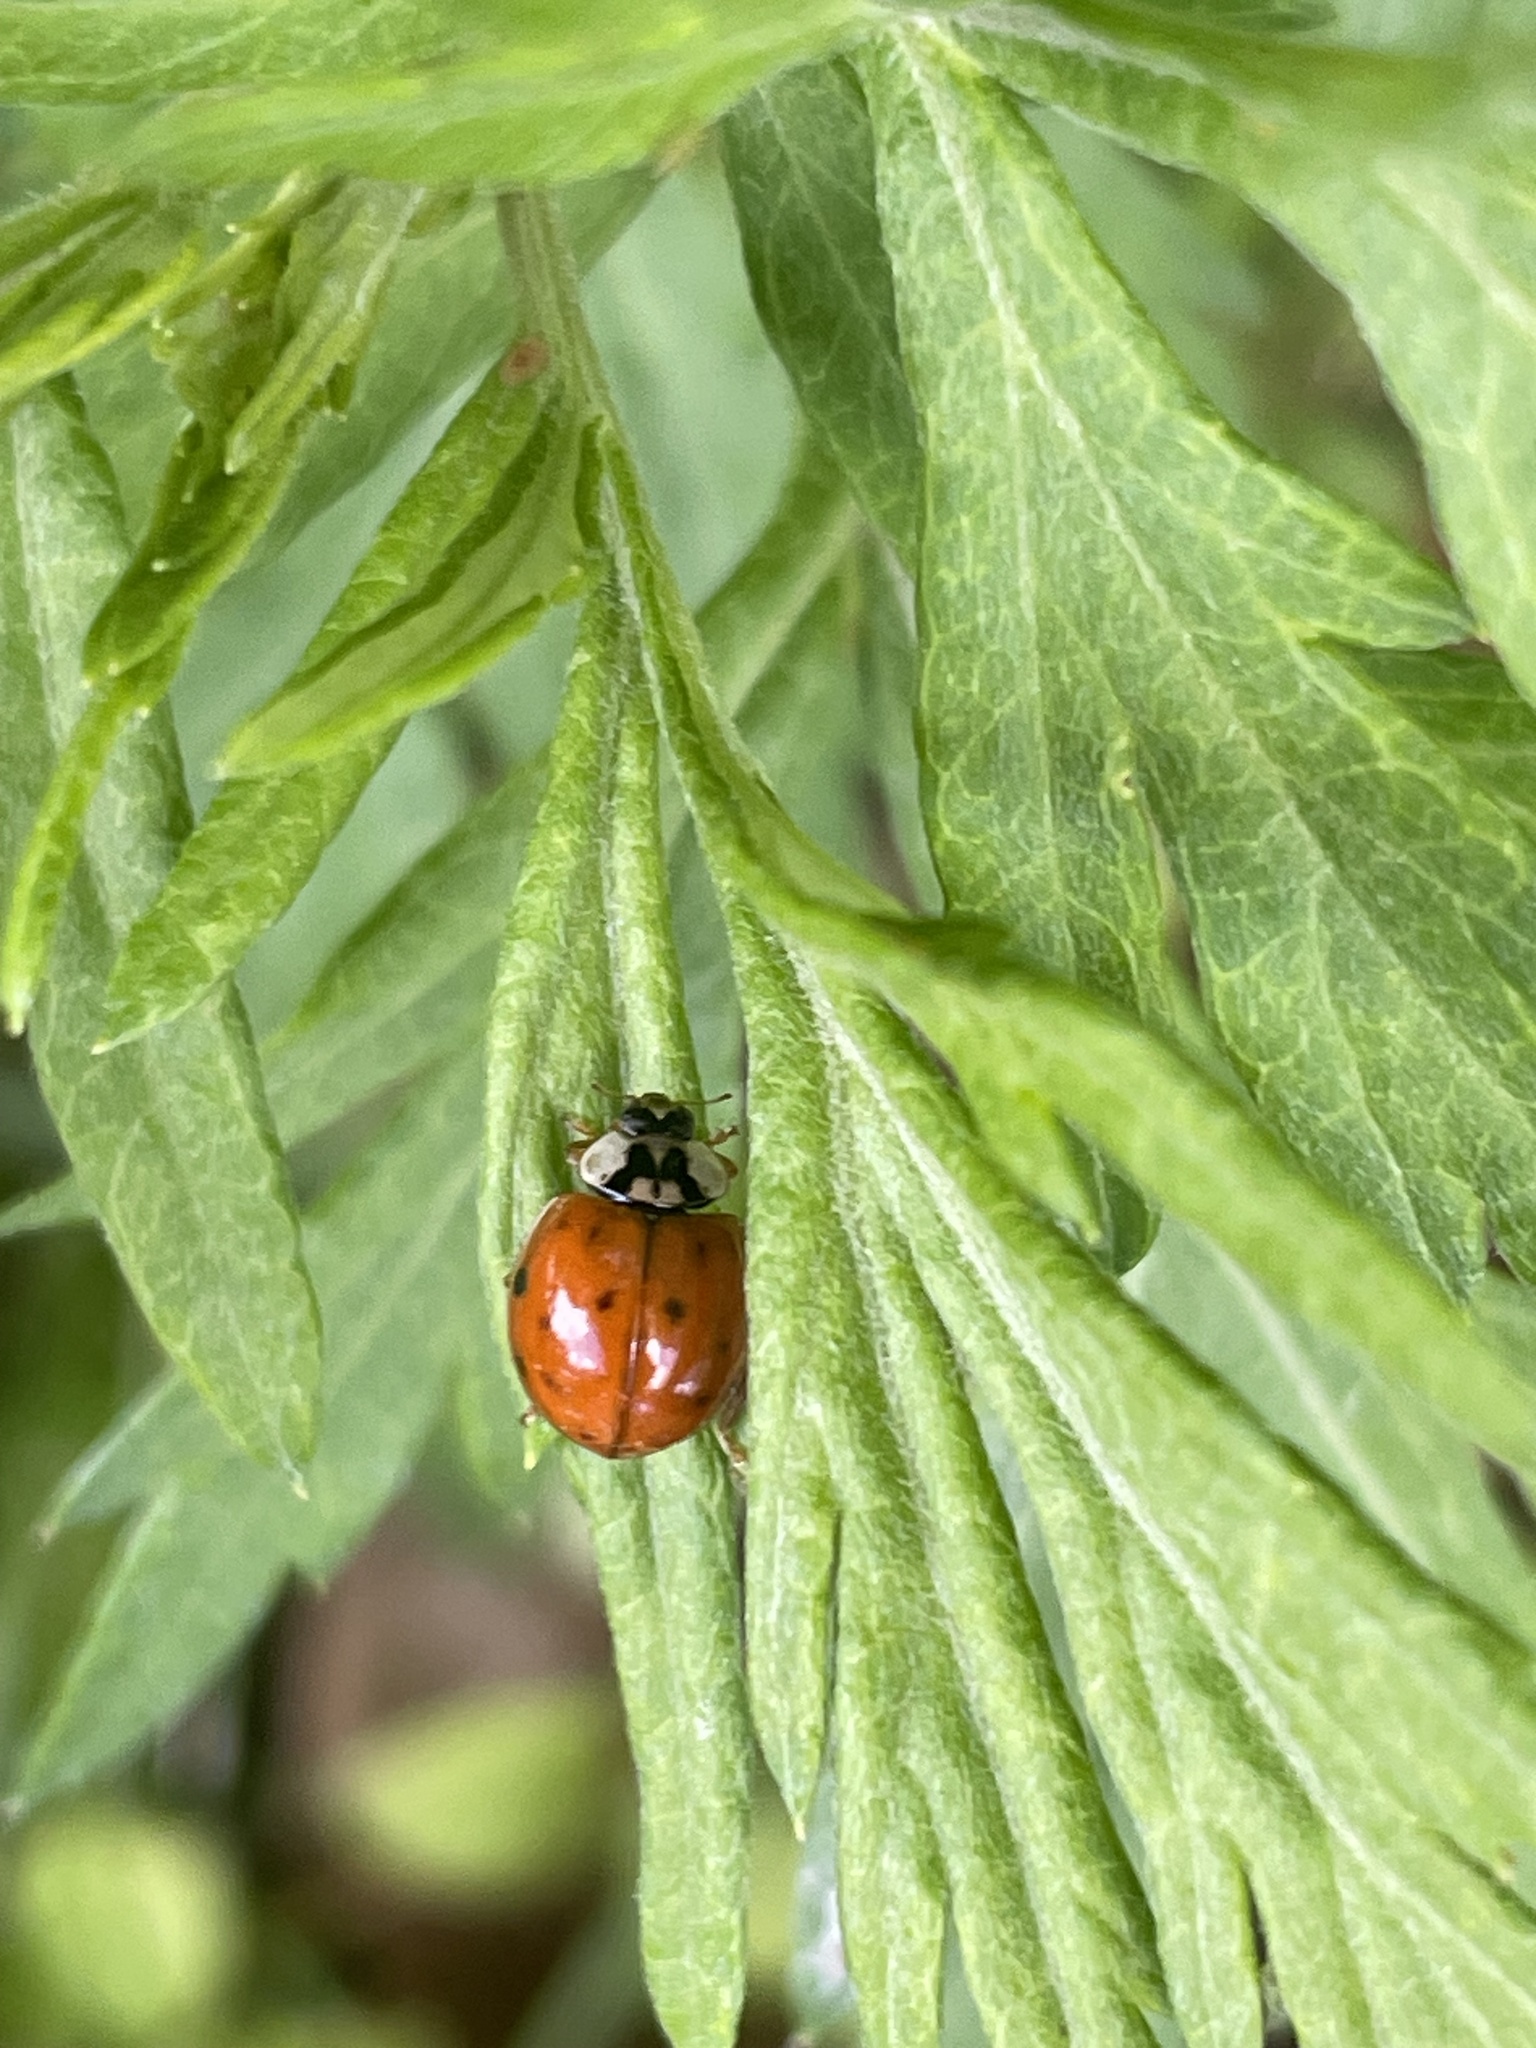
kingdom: Animalia
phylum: Arthropoda
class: Insecta
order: Coleoptera
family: Coccinellidae
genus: Harmonia
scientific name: Harmonia axyridis
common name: Harlequin ladybird
